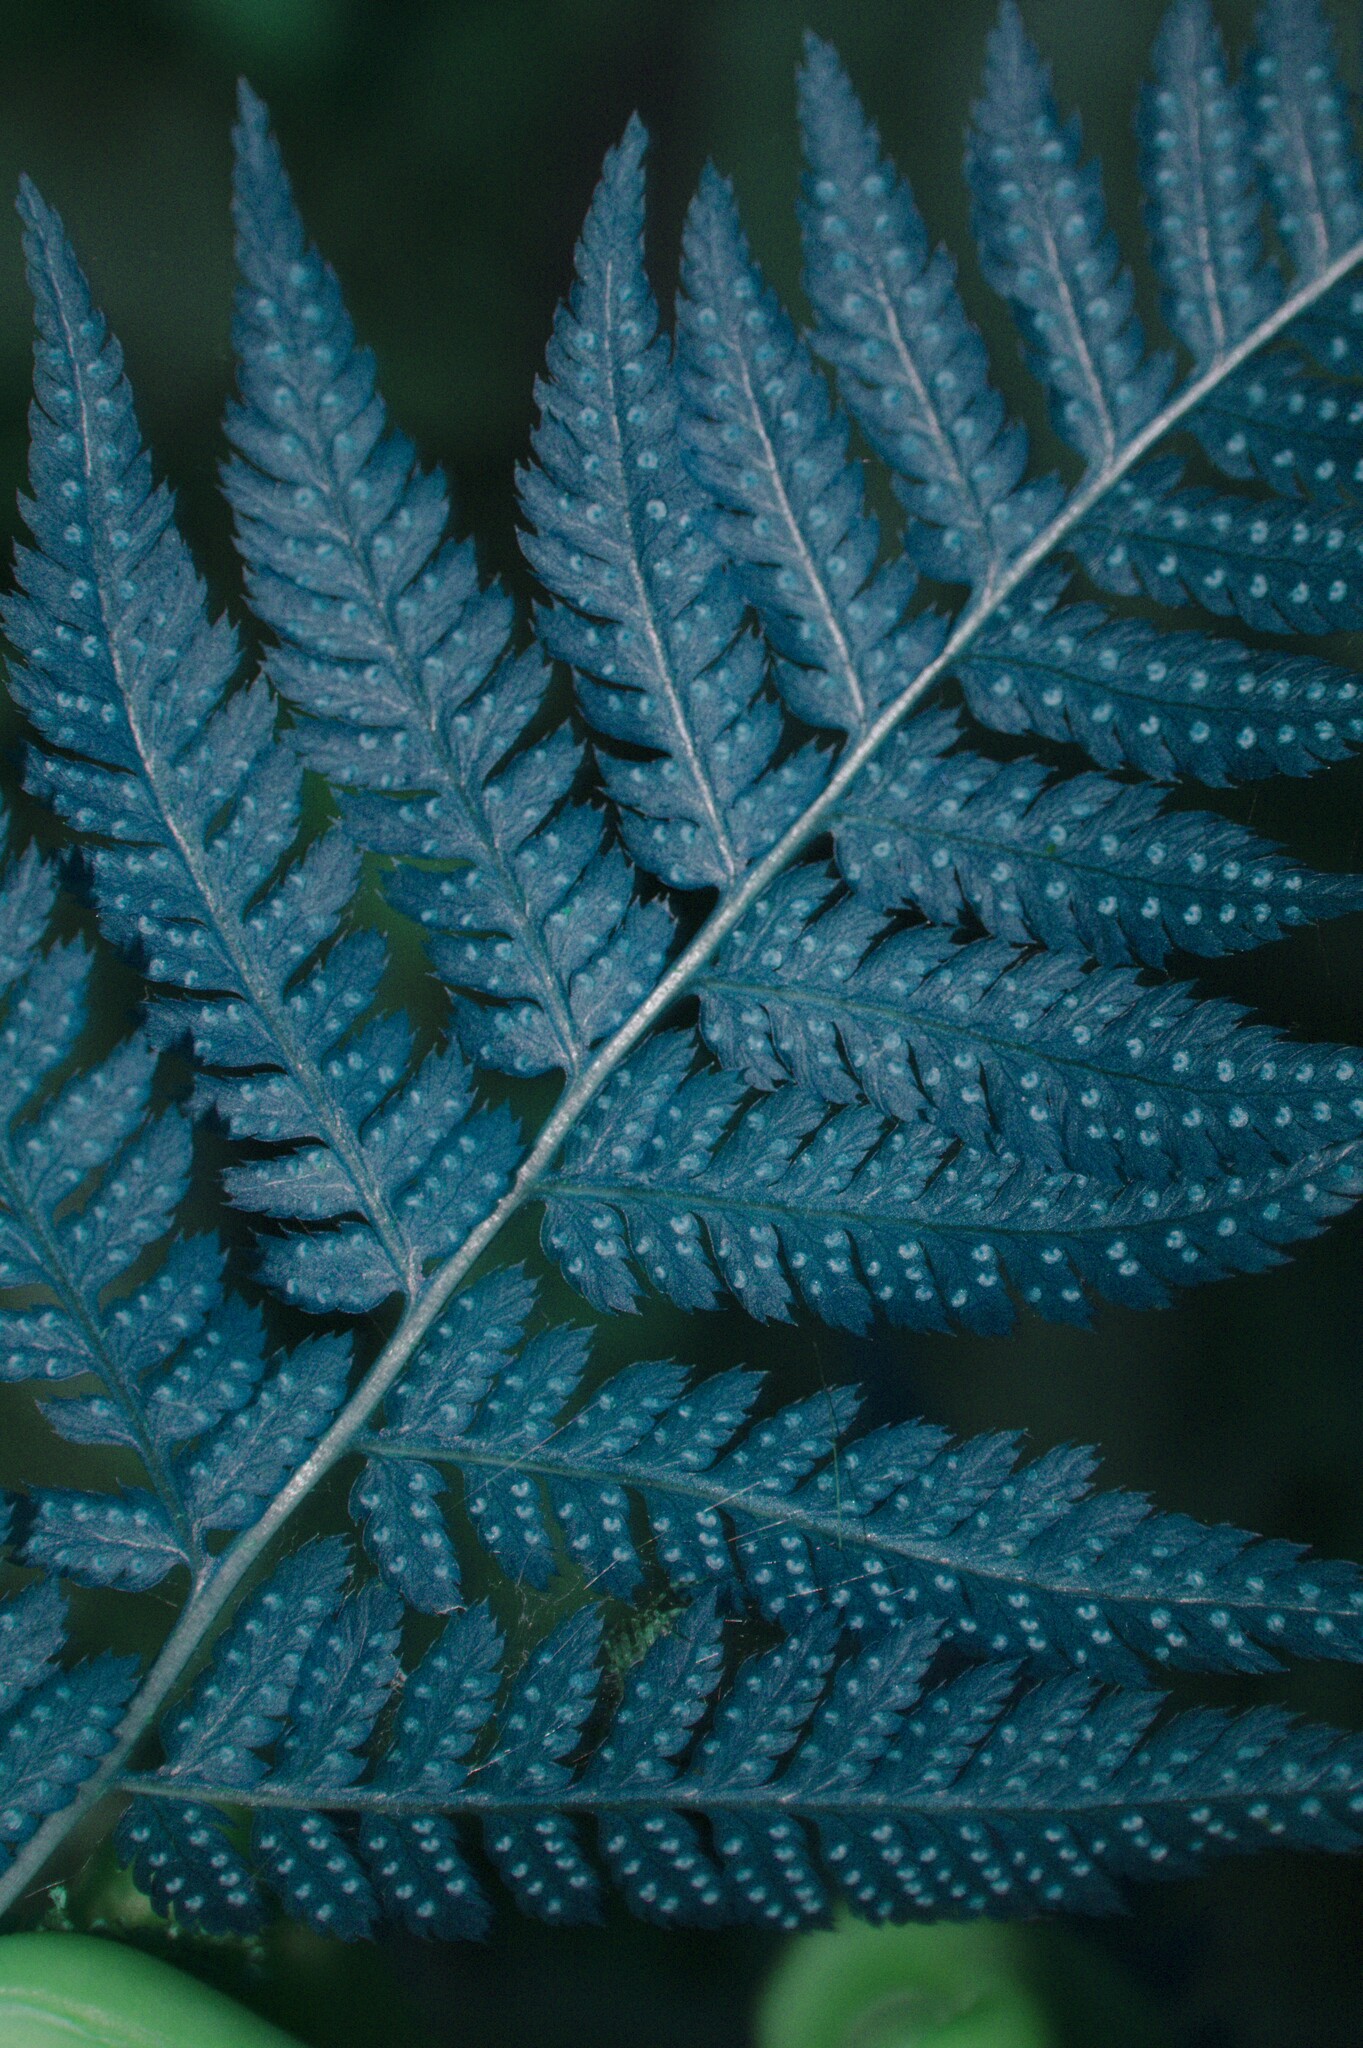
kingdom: Plantae
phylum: Tracheophyta
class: Polypodiopsida
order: Polypodiales
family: Dryopteridaceae
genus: Dryopteris
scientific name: Dryopteris carthusiana
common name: Narrow buckler-fern
